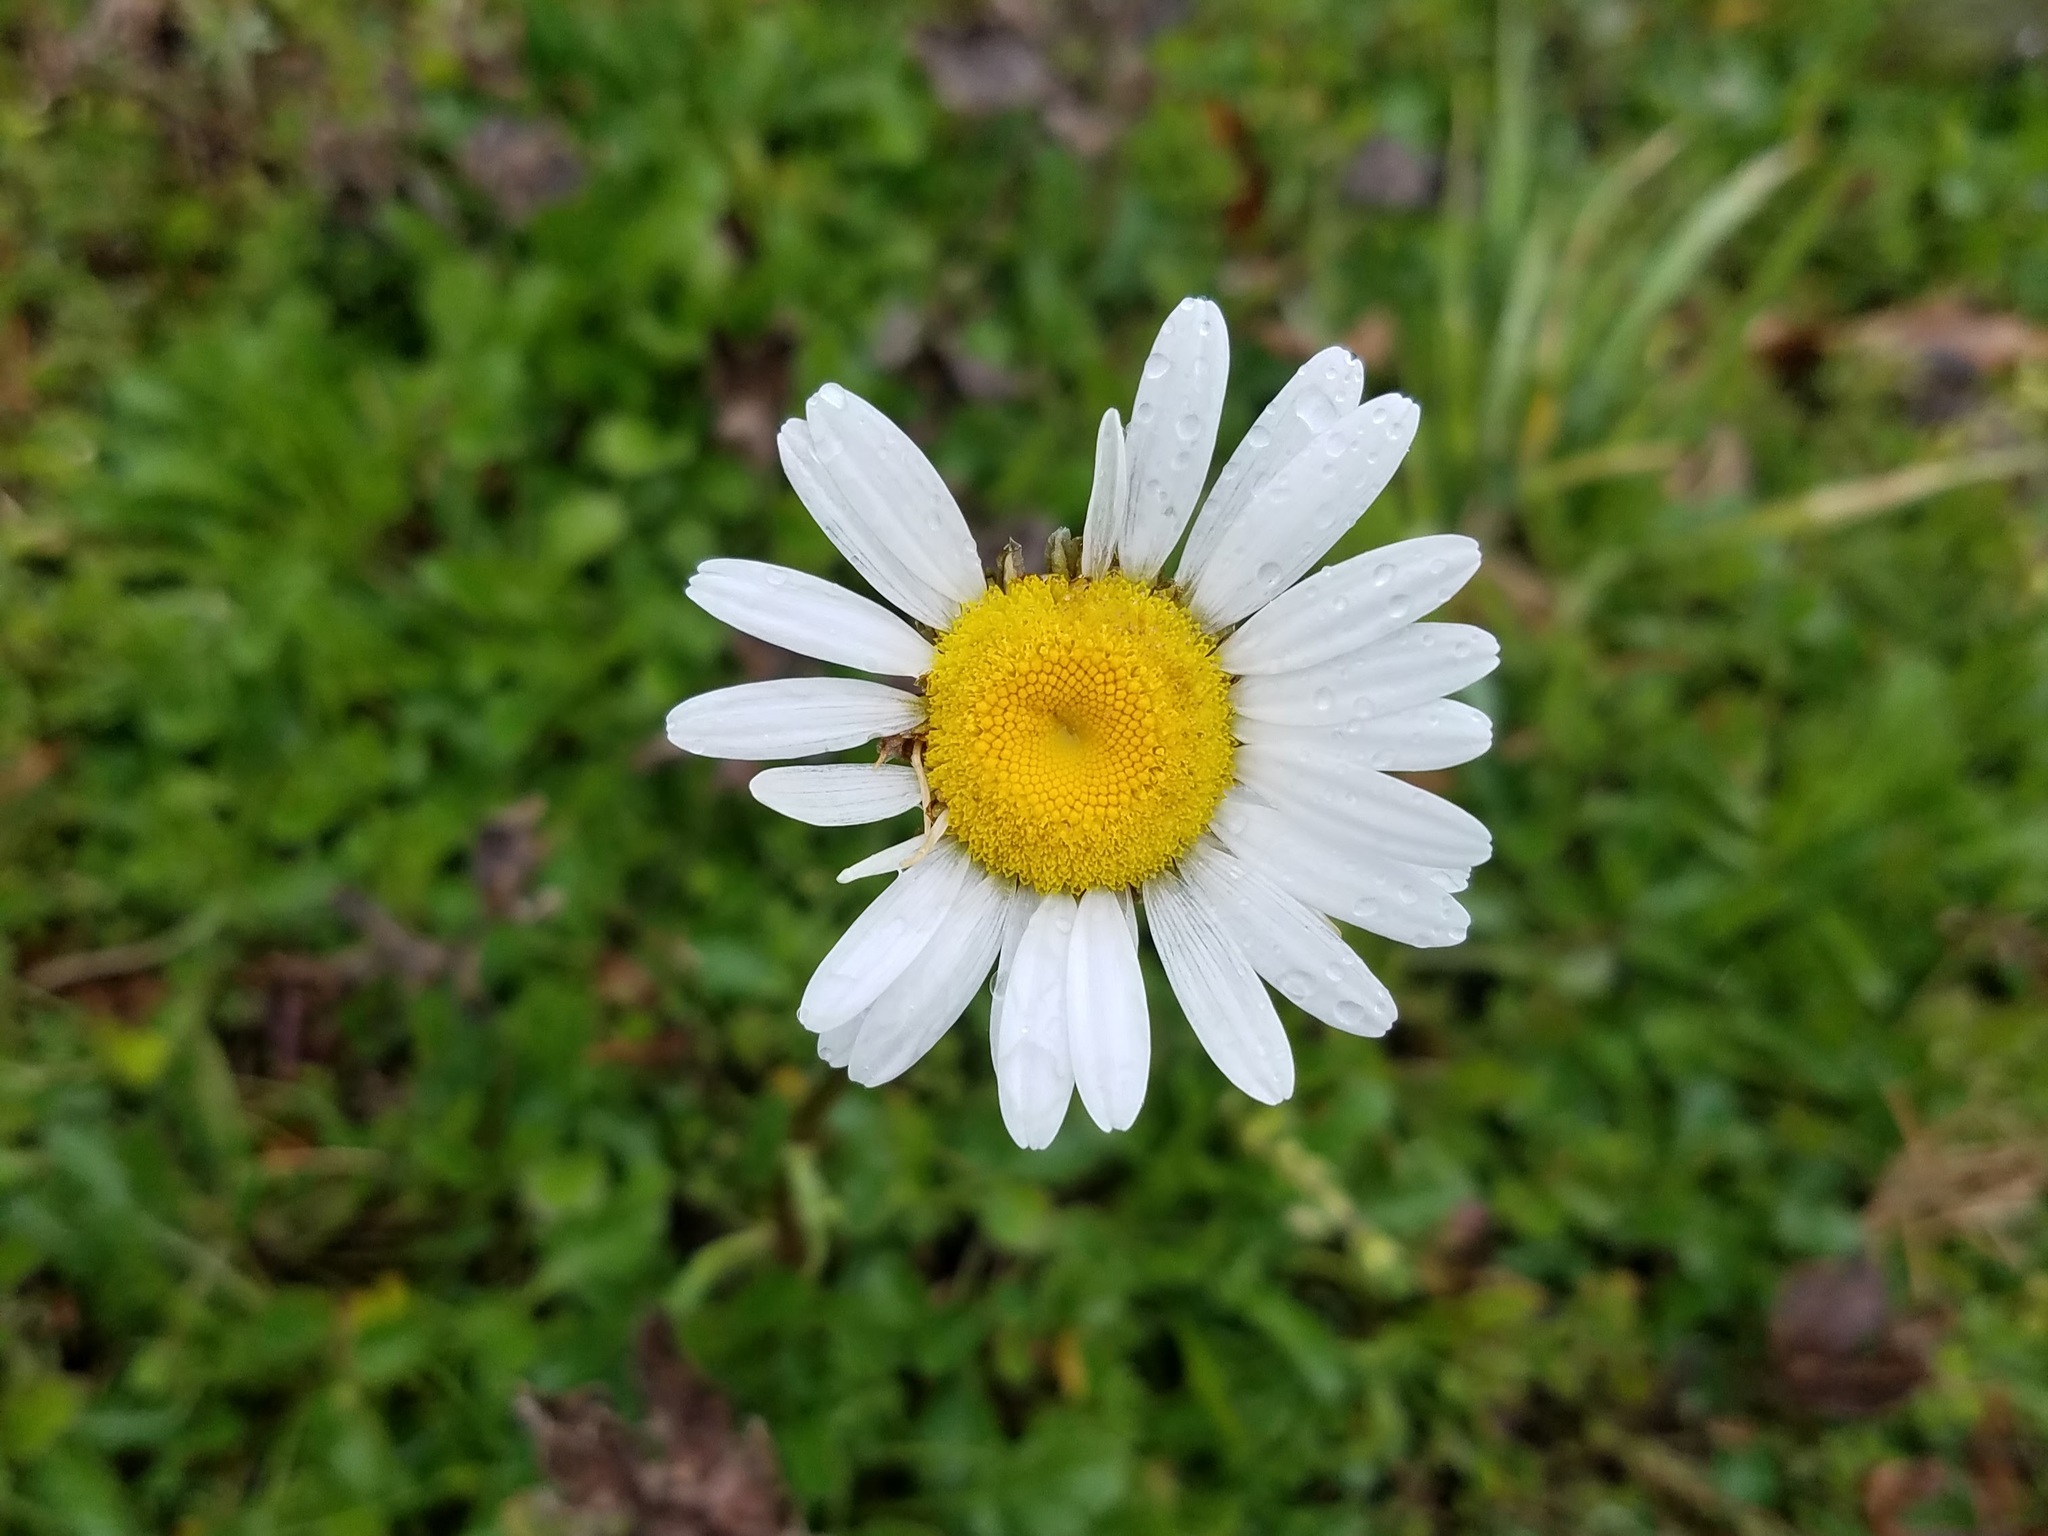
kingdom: Plantae
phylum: Tracheophyta
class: Magnoliopsida
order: Asterales
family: Asteraceae
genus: Leucanthemum
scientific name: Leucanthemum vulgare
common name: Oxeye daisy
